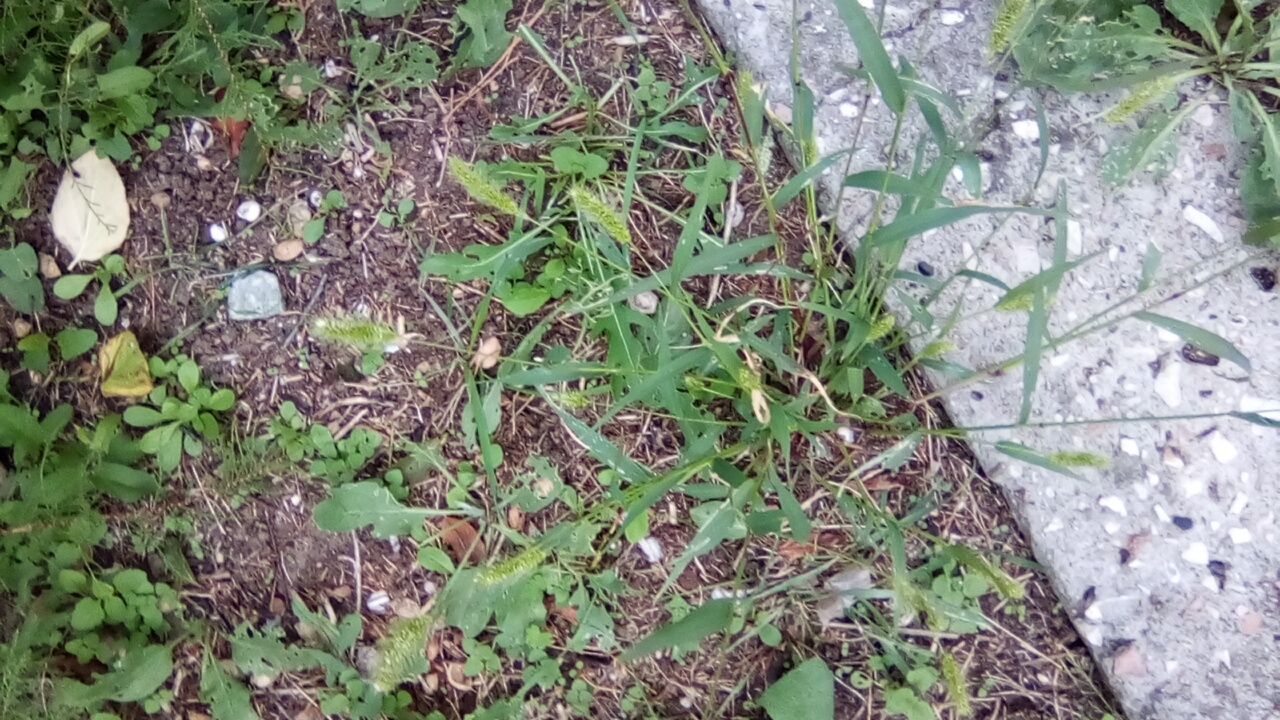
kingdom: Plantae
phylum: Tracheophyta
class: Liliopsida
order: Poales
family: Poaceae
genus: Setaria
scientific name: Setaria viridis
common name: Green bristlegrass
